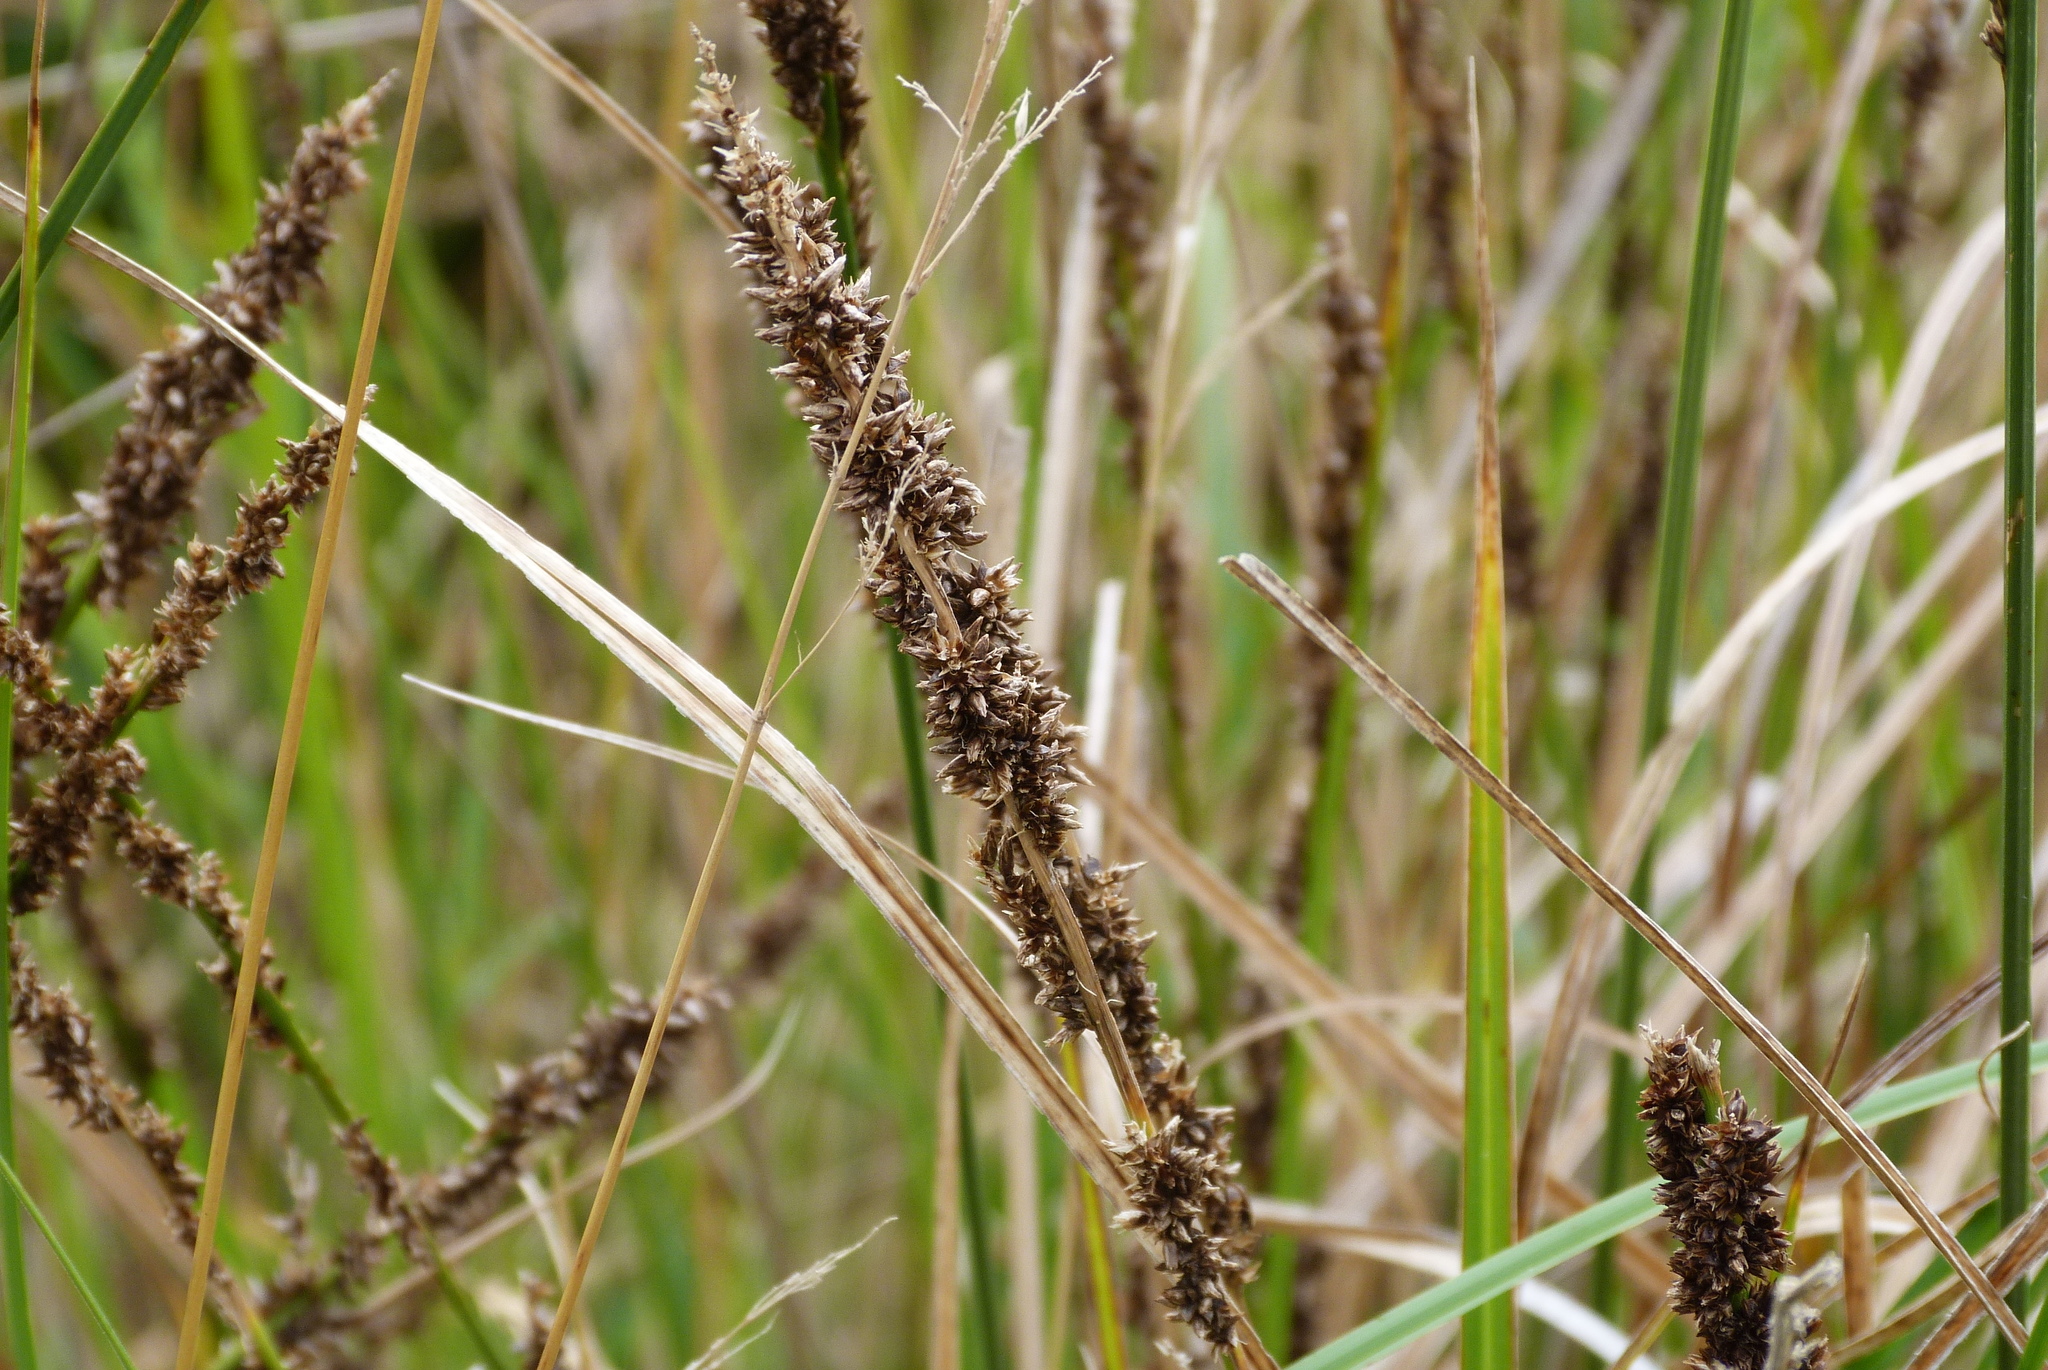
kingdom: Plantae
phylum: Tracheophyta
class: Liliopsida
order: Poales
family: Cyperaceae
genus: Carex
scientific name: Carex appressa
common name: Tussock sedge
